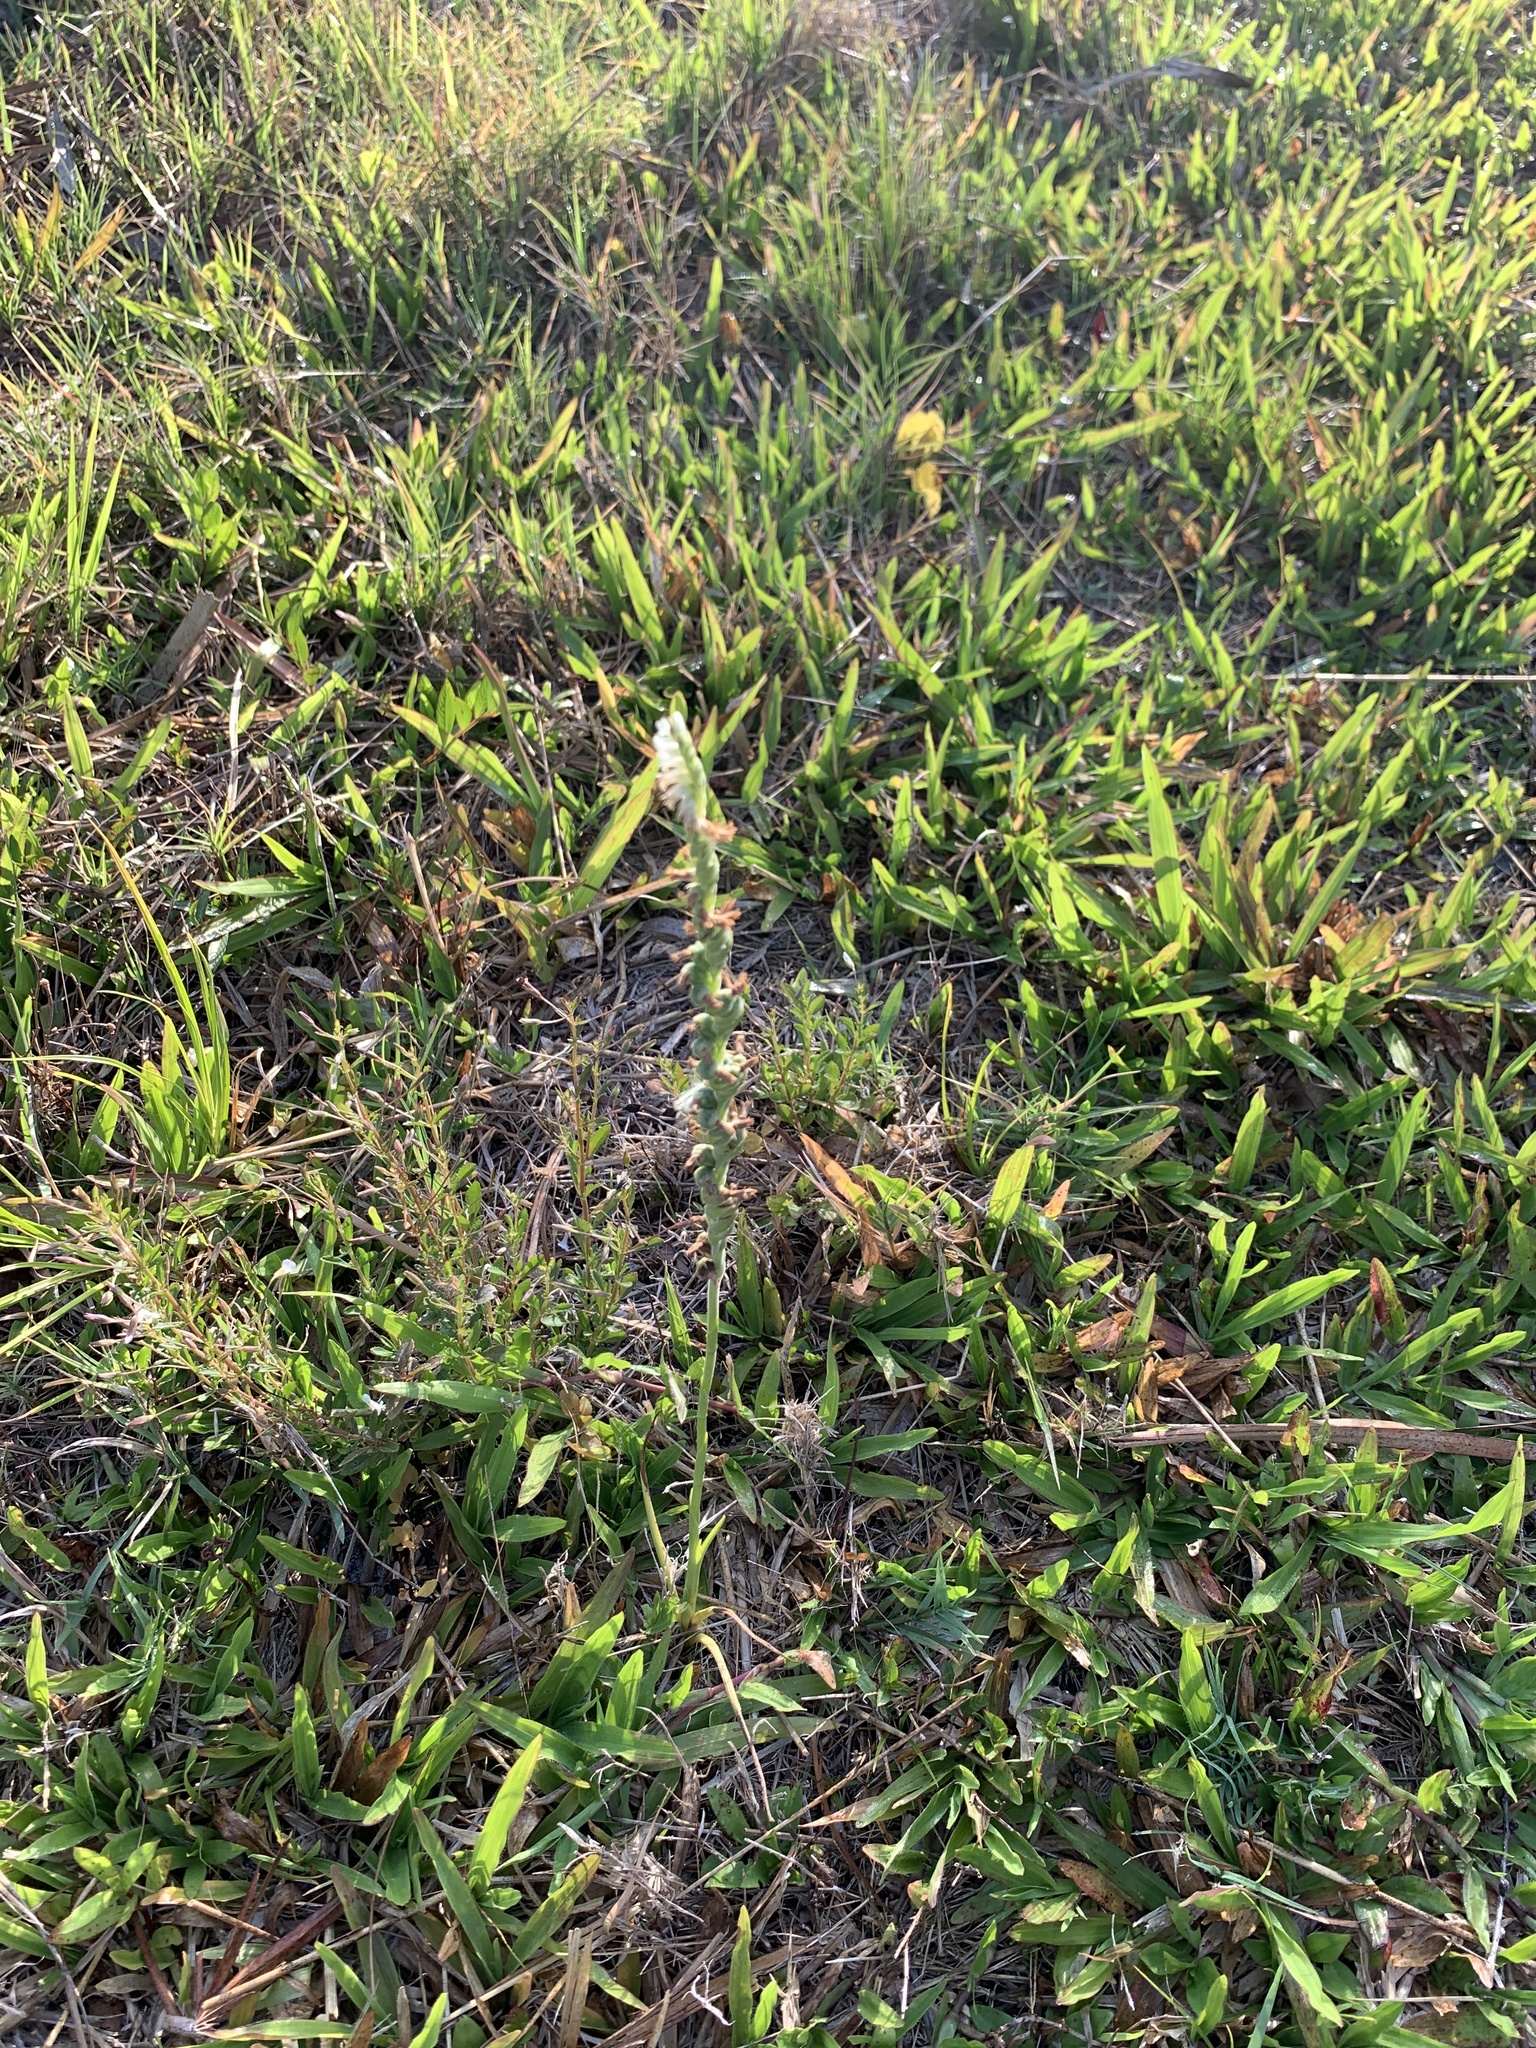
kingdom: Plantae
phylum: Tracheophyta
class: Liliopsida
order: Asparagales
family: Orchidaceae
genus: Spiranthes
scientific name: Spiranthes vernalis
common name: Spring ladies'-tresses
